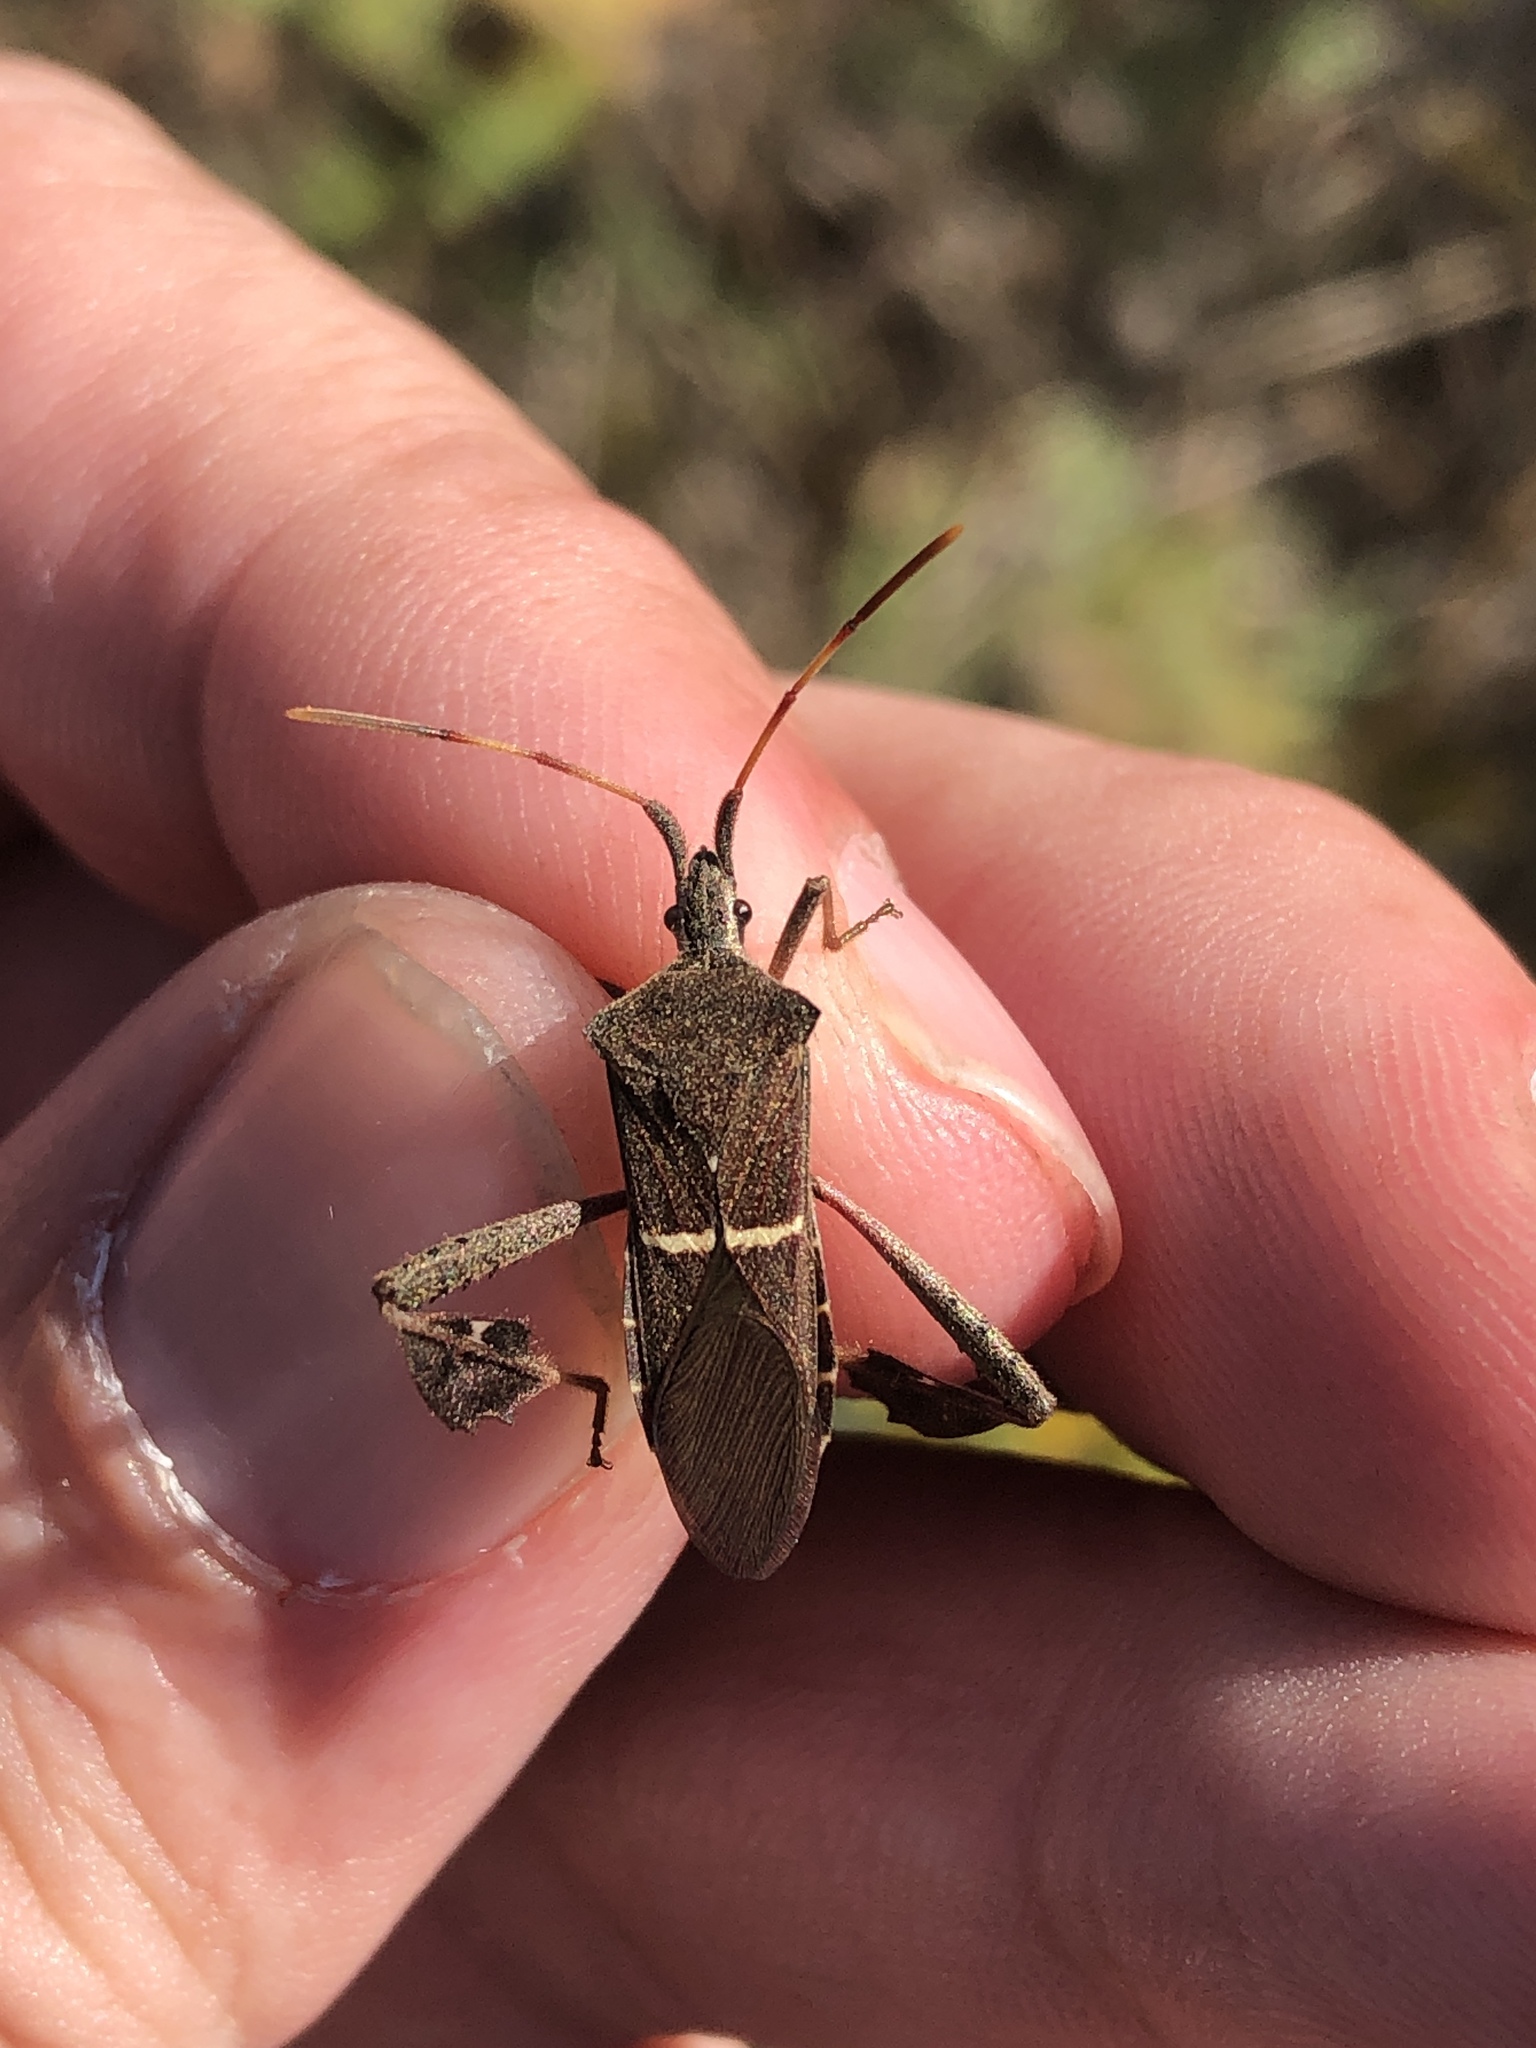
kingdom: Animalia
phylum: Arthropoda
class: Insecta
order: Hemiptera
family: Coreidae
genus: Leptoglossus
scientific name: Leptoglossus phyllopus
